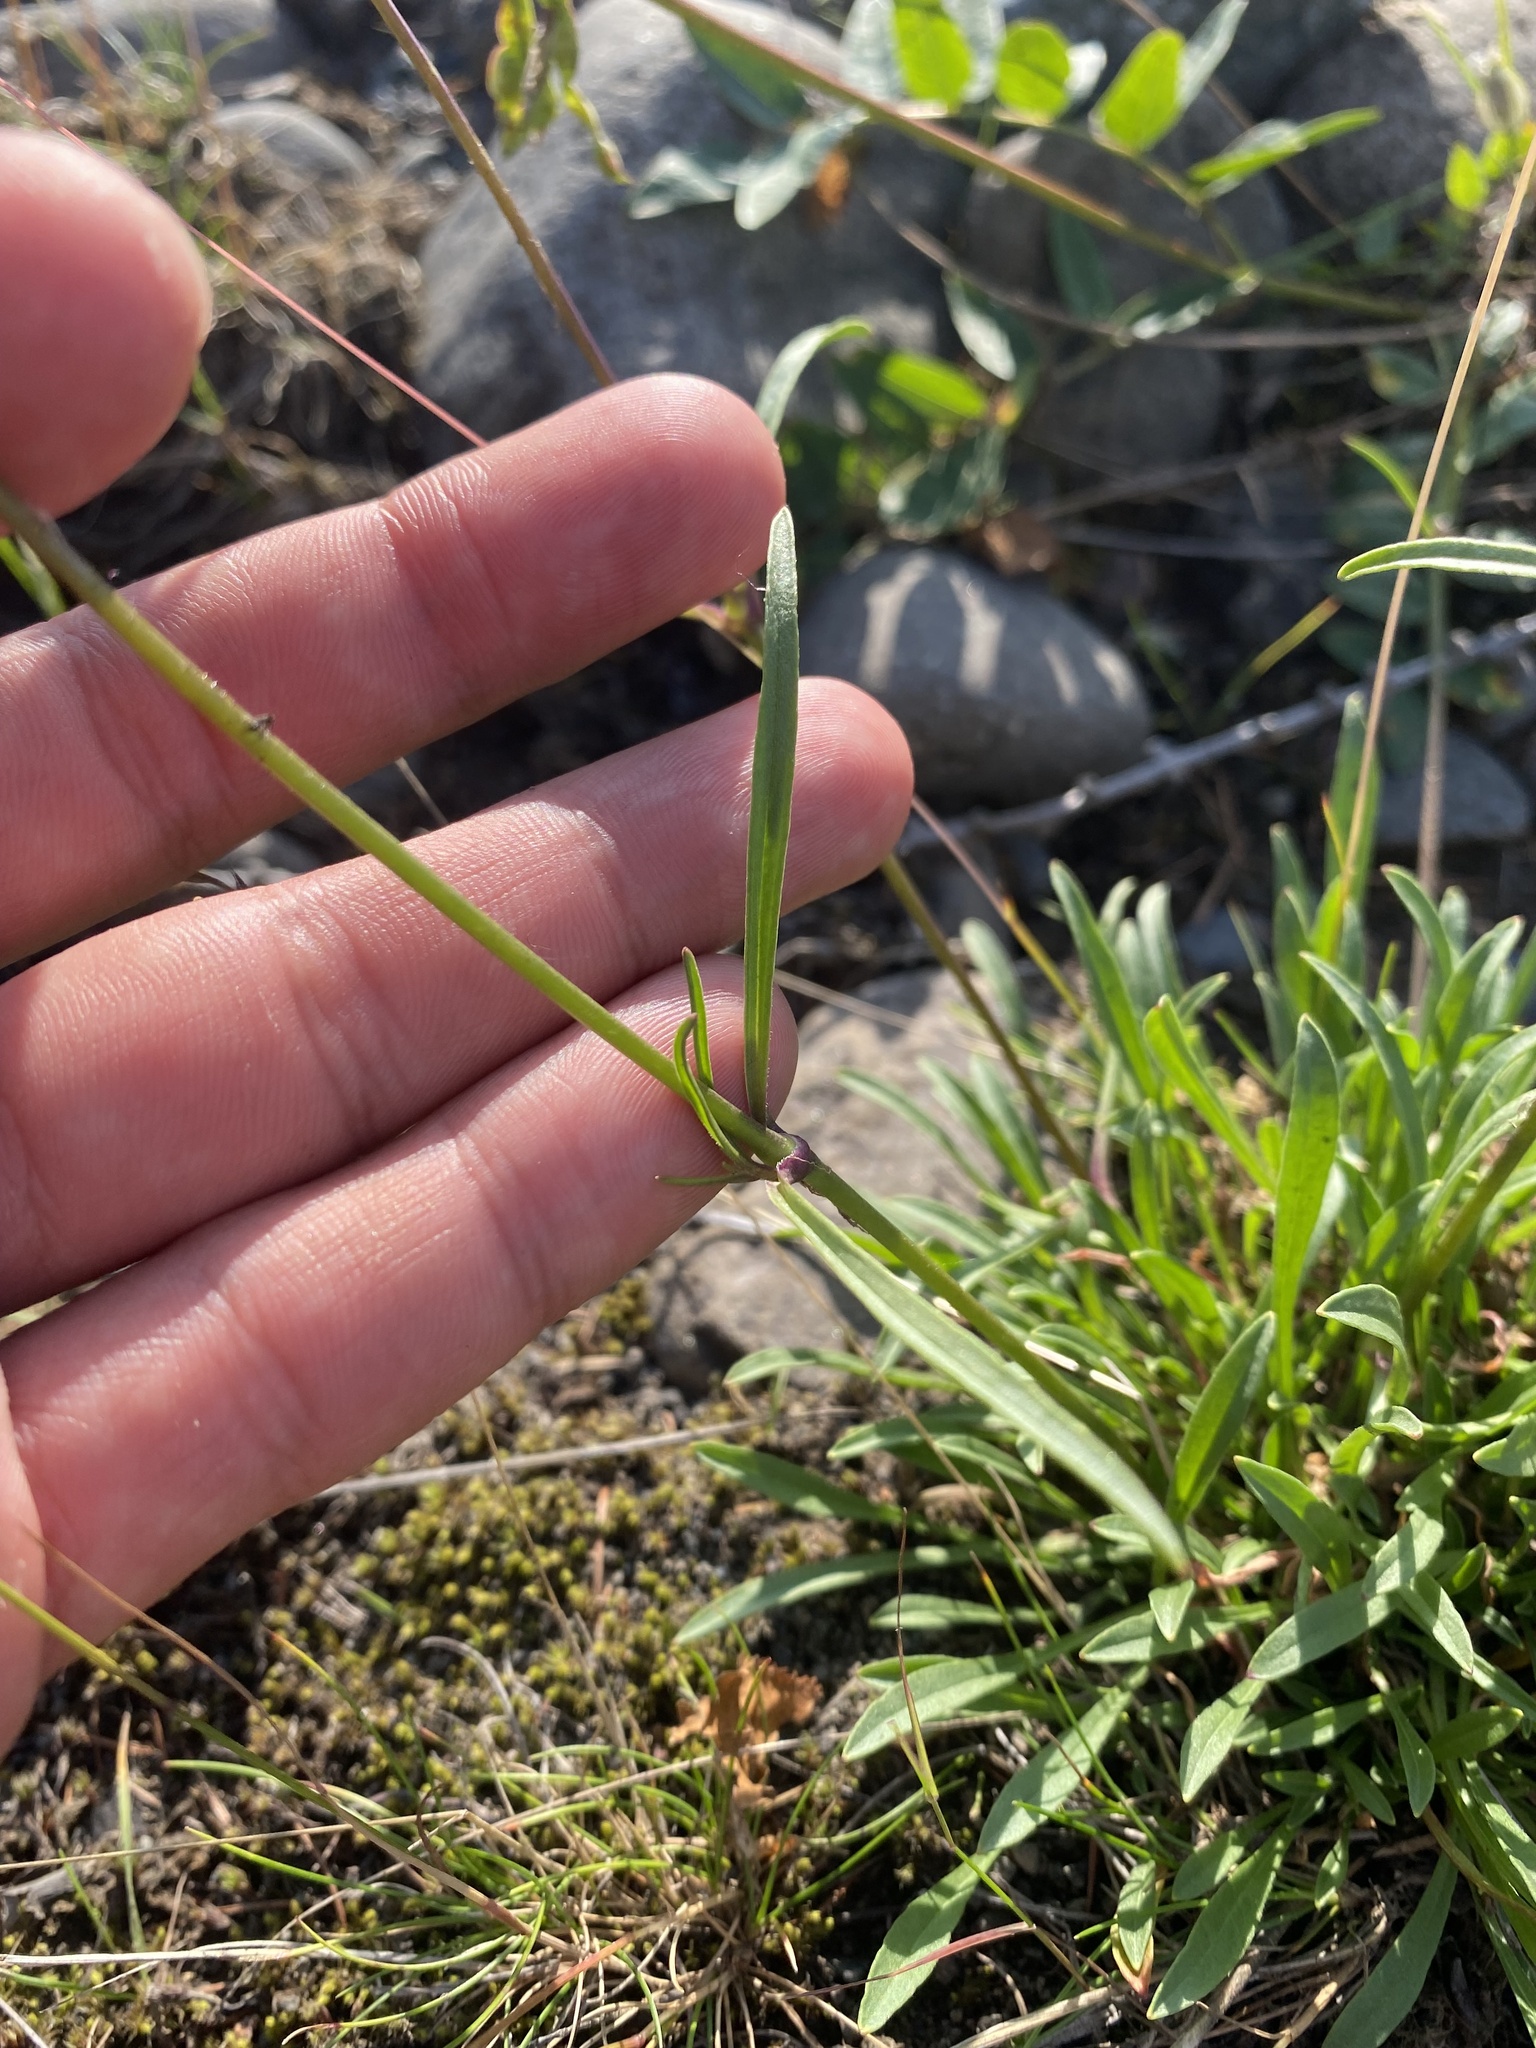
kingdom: Plantae
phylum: Tracheophyta
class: Magnoliopsida
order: Caryophyllales
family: Caryophyllaceae
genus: Silene
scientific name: Silene chamarensis
